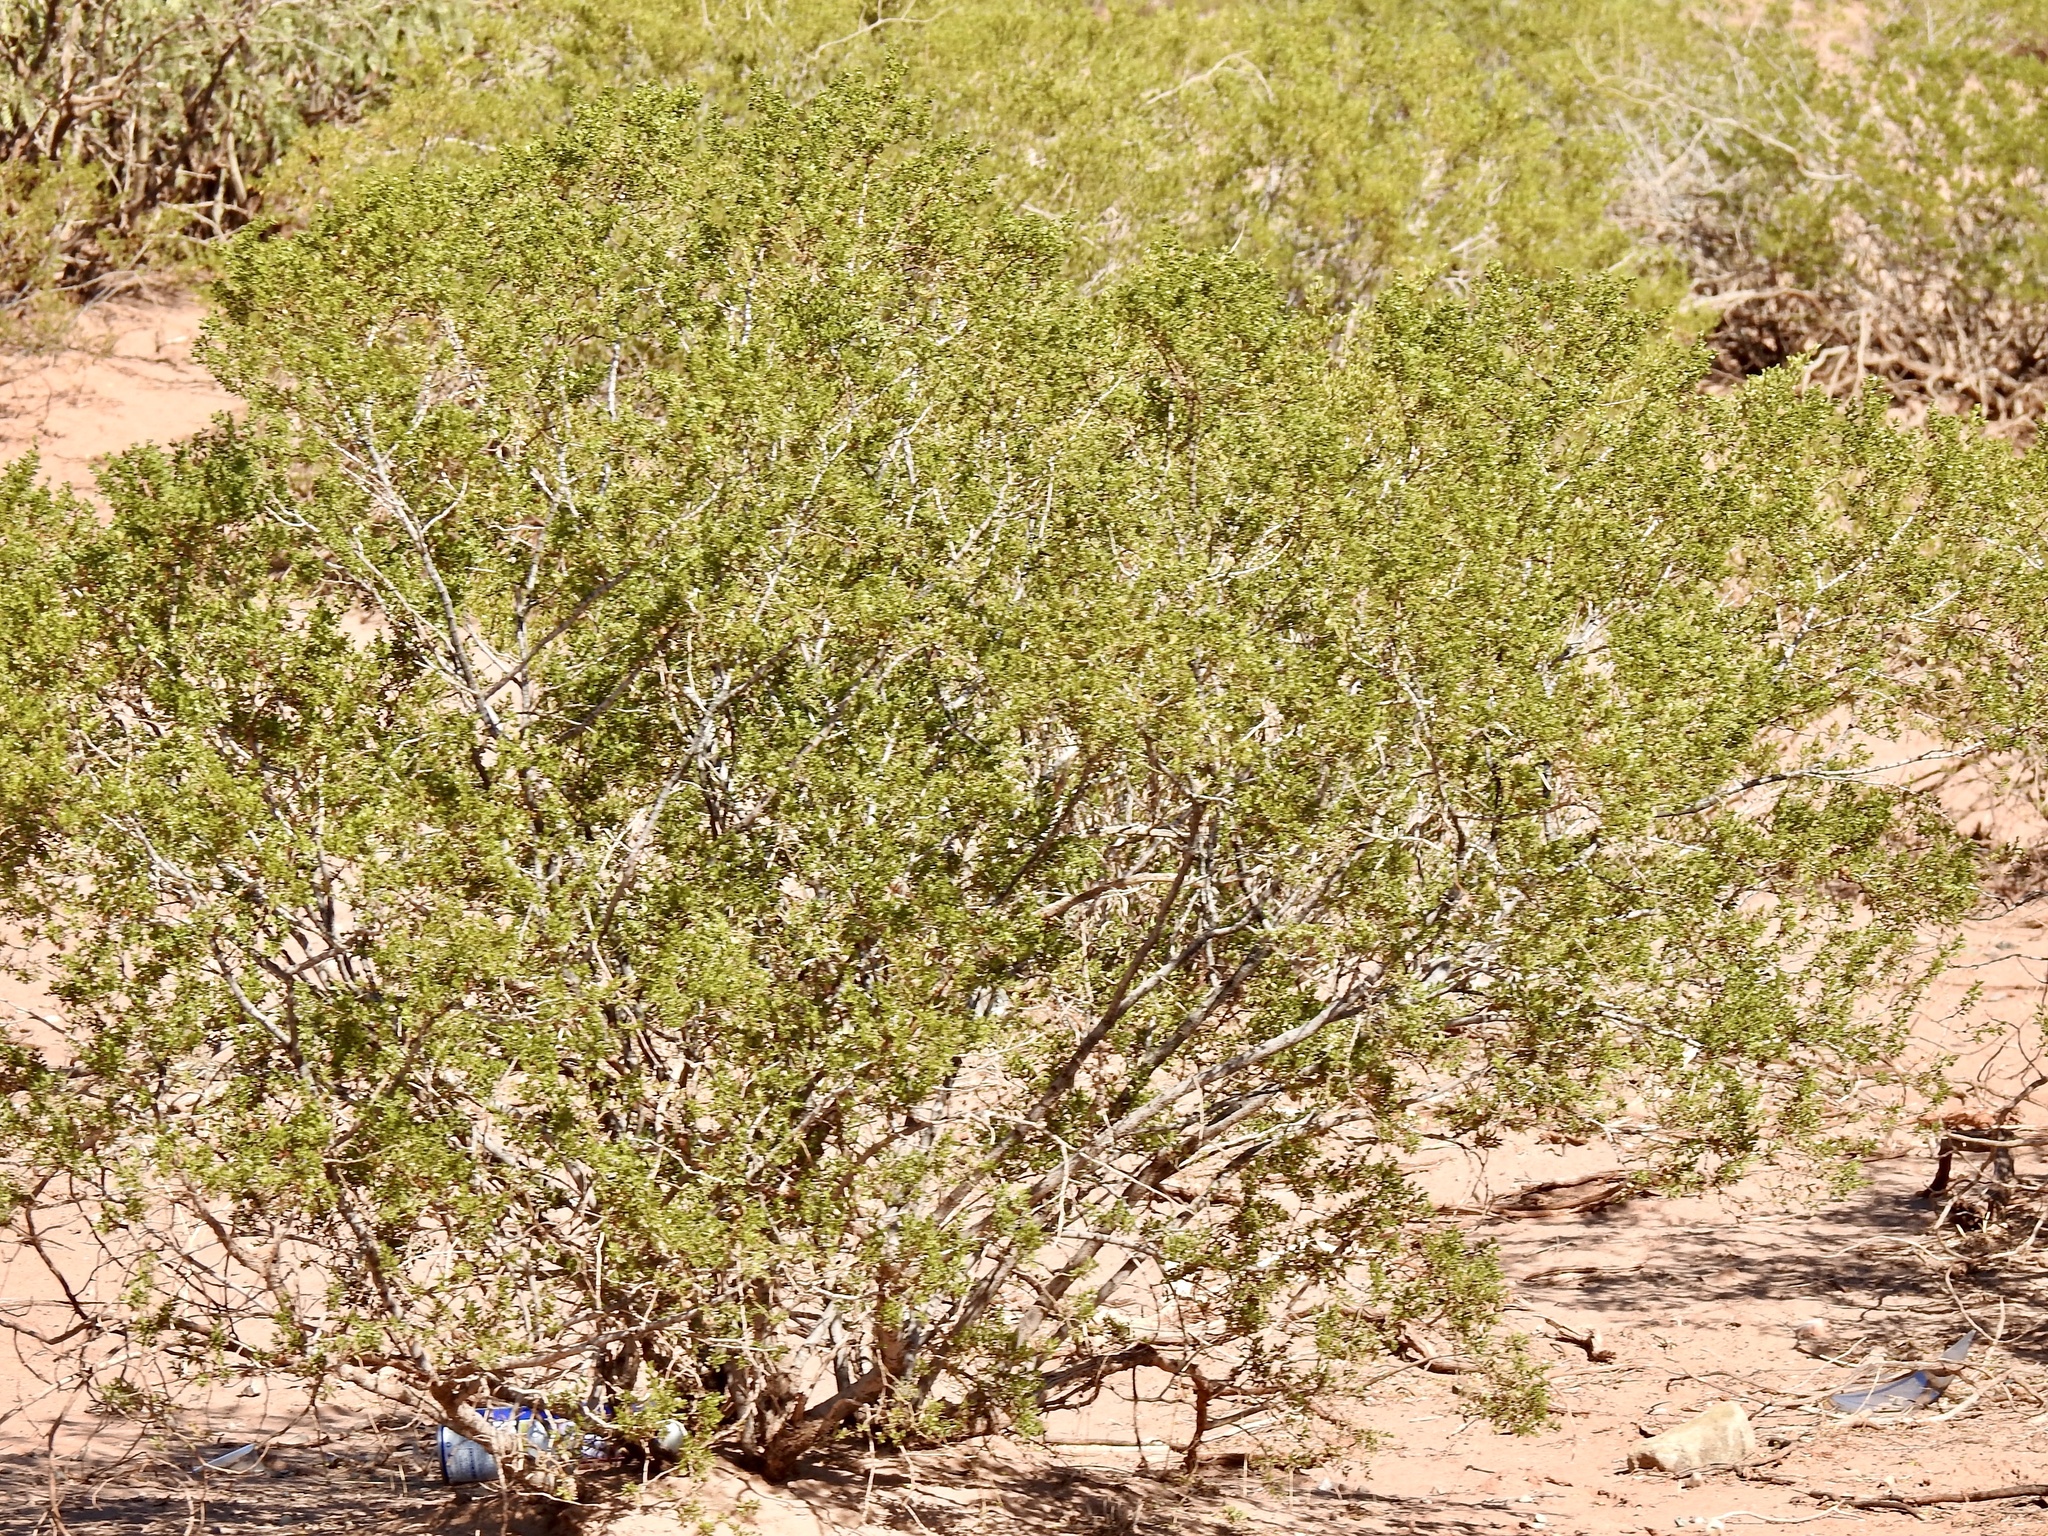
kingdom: Plantae
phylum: Tracheophyta
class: Magnoliopsida
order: Zygophyllales
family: Zygophyllaceae
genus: Larrea
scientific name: Larrea tridentata
